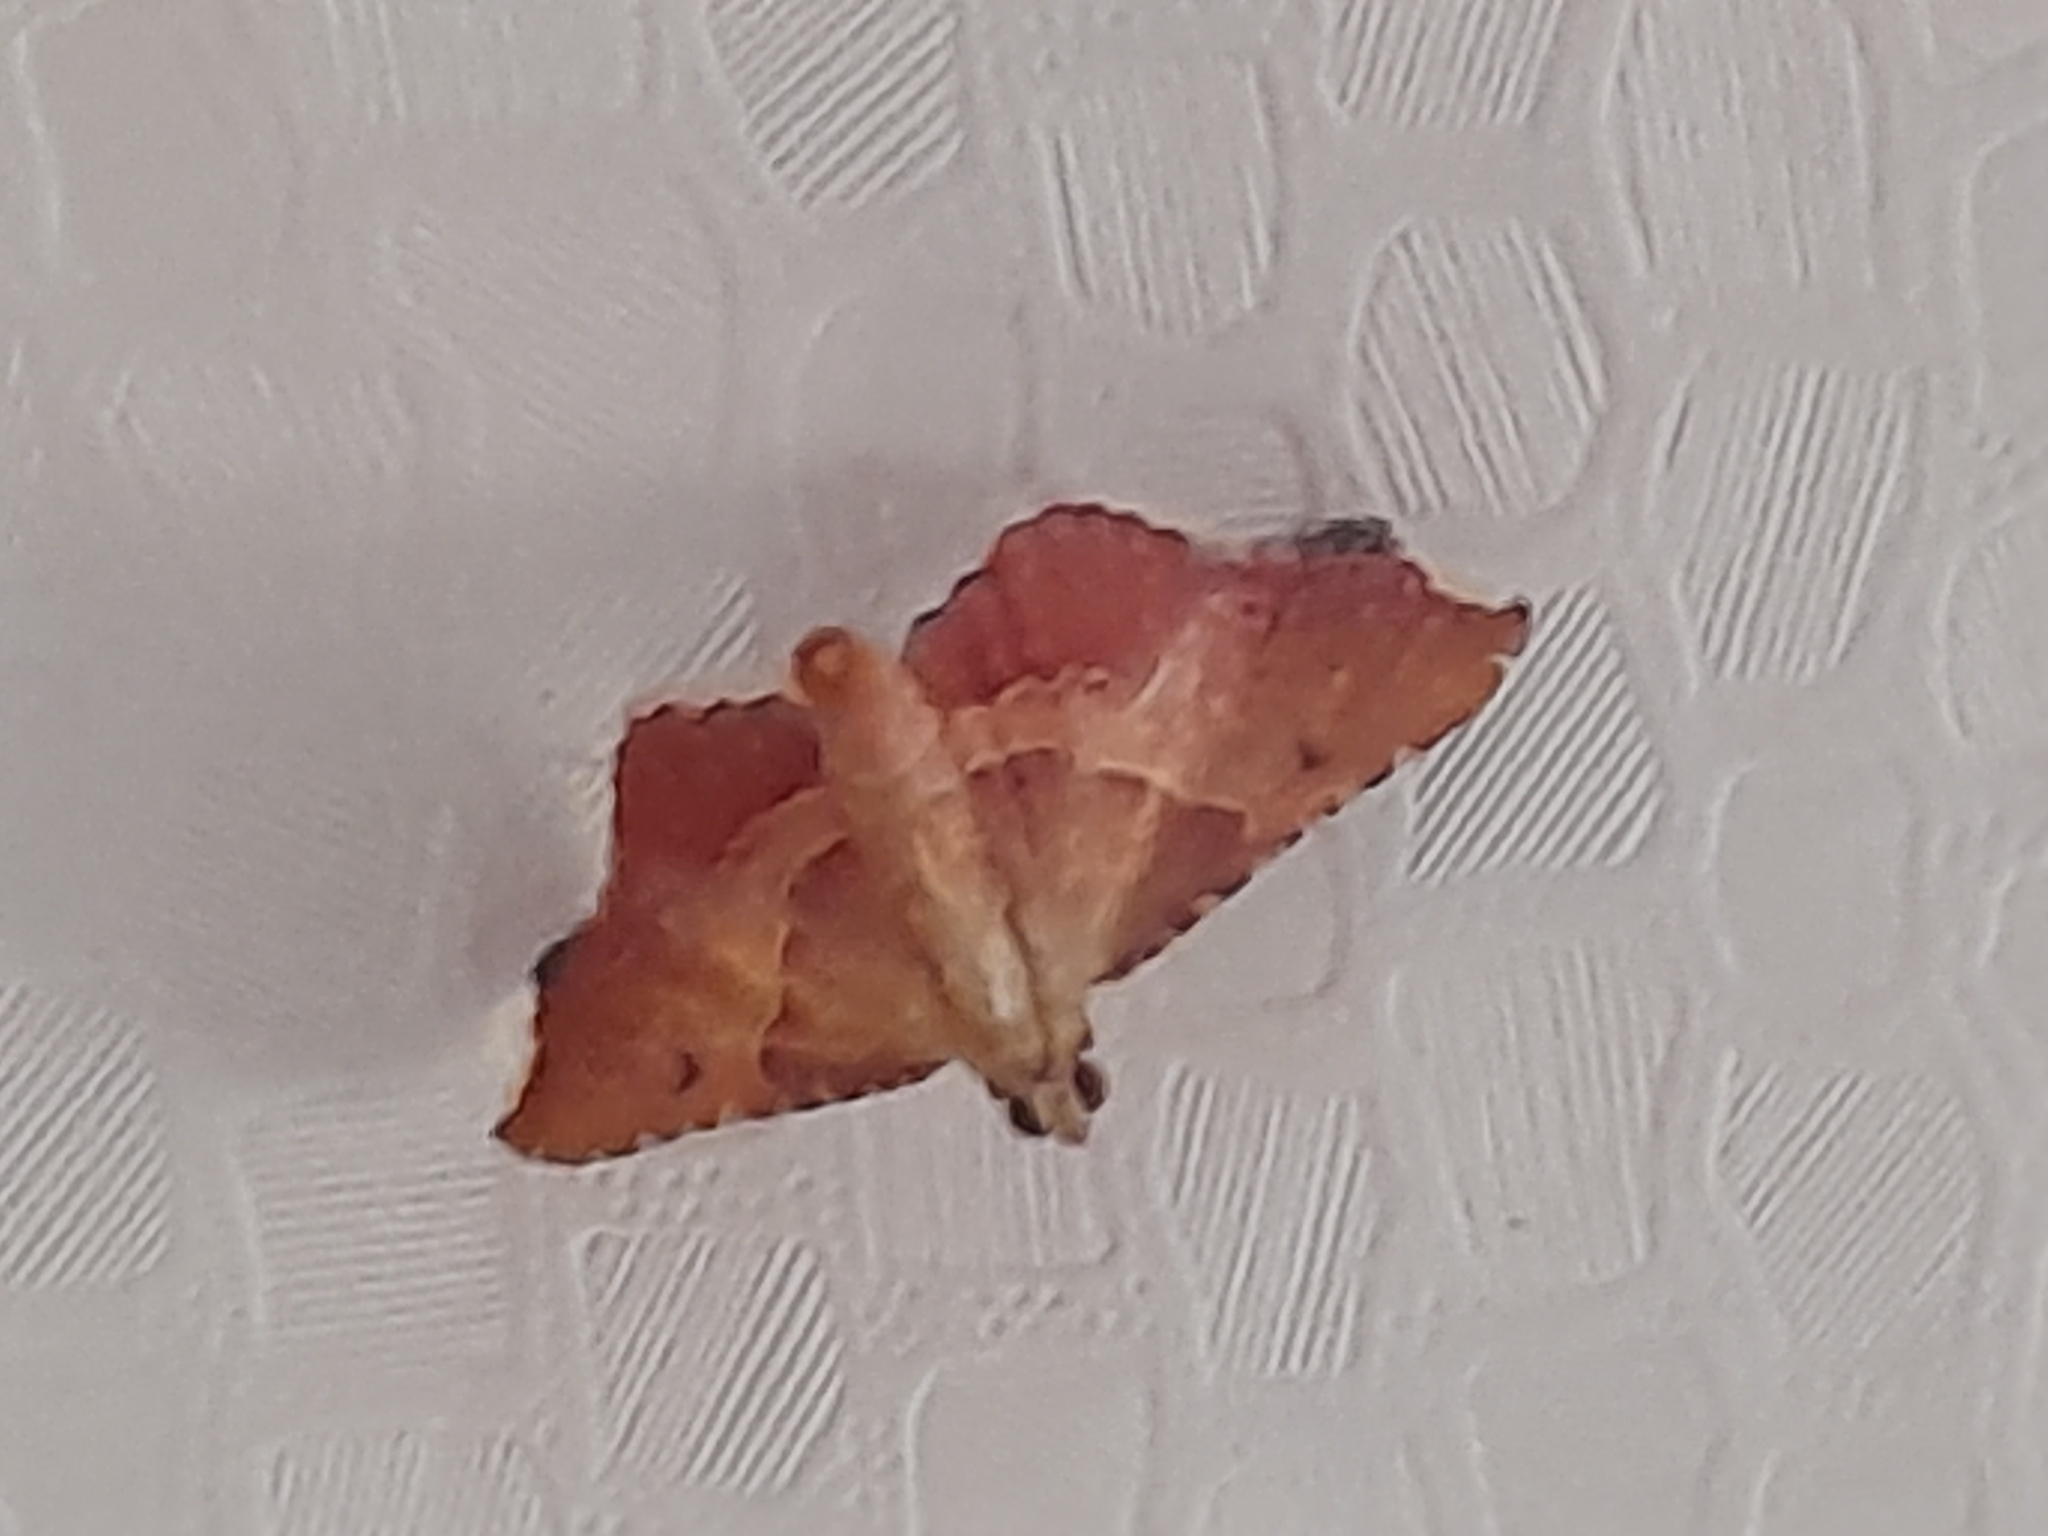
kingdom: Animalia
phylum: Arthropoda
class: Insecta
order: Lepidoptera
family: Pyralidae
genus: Endotricha
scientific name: Endotricha flammealis
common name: Rosy tabby
